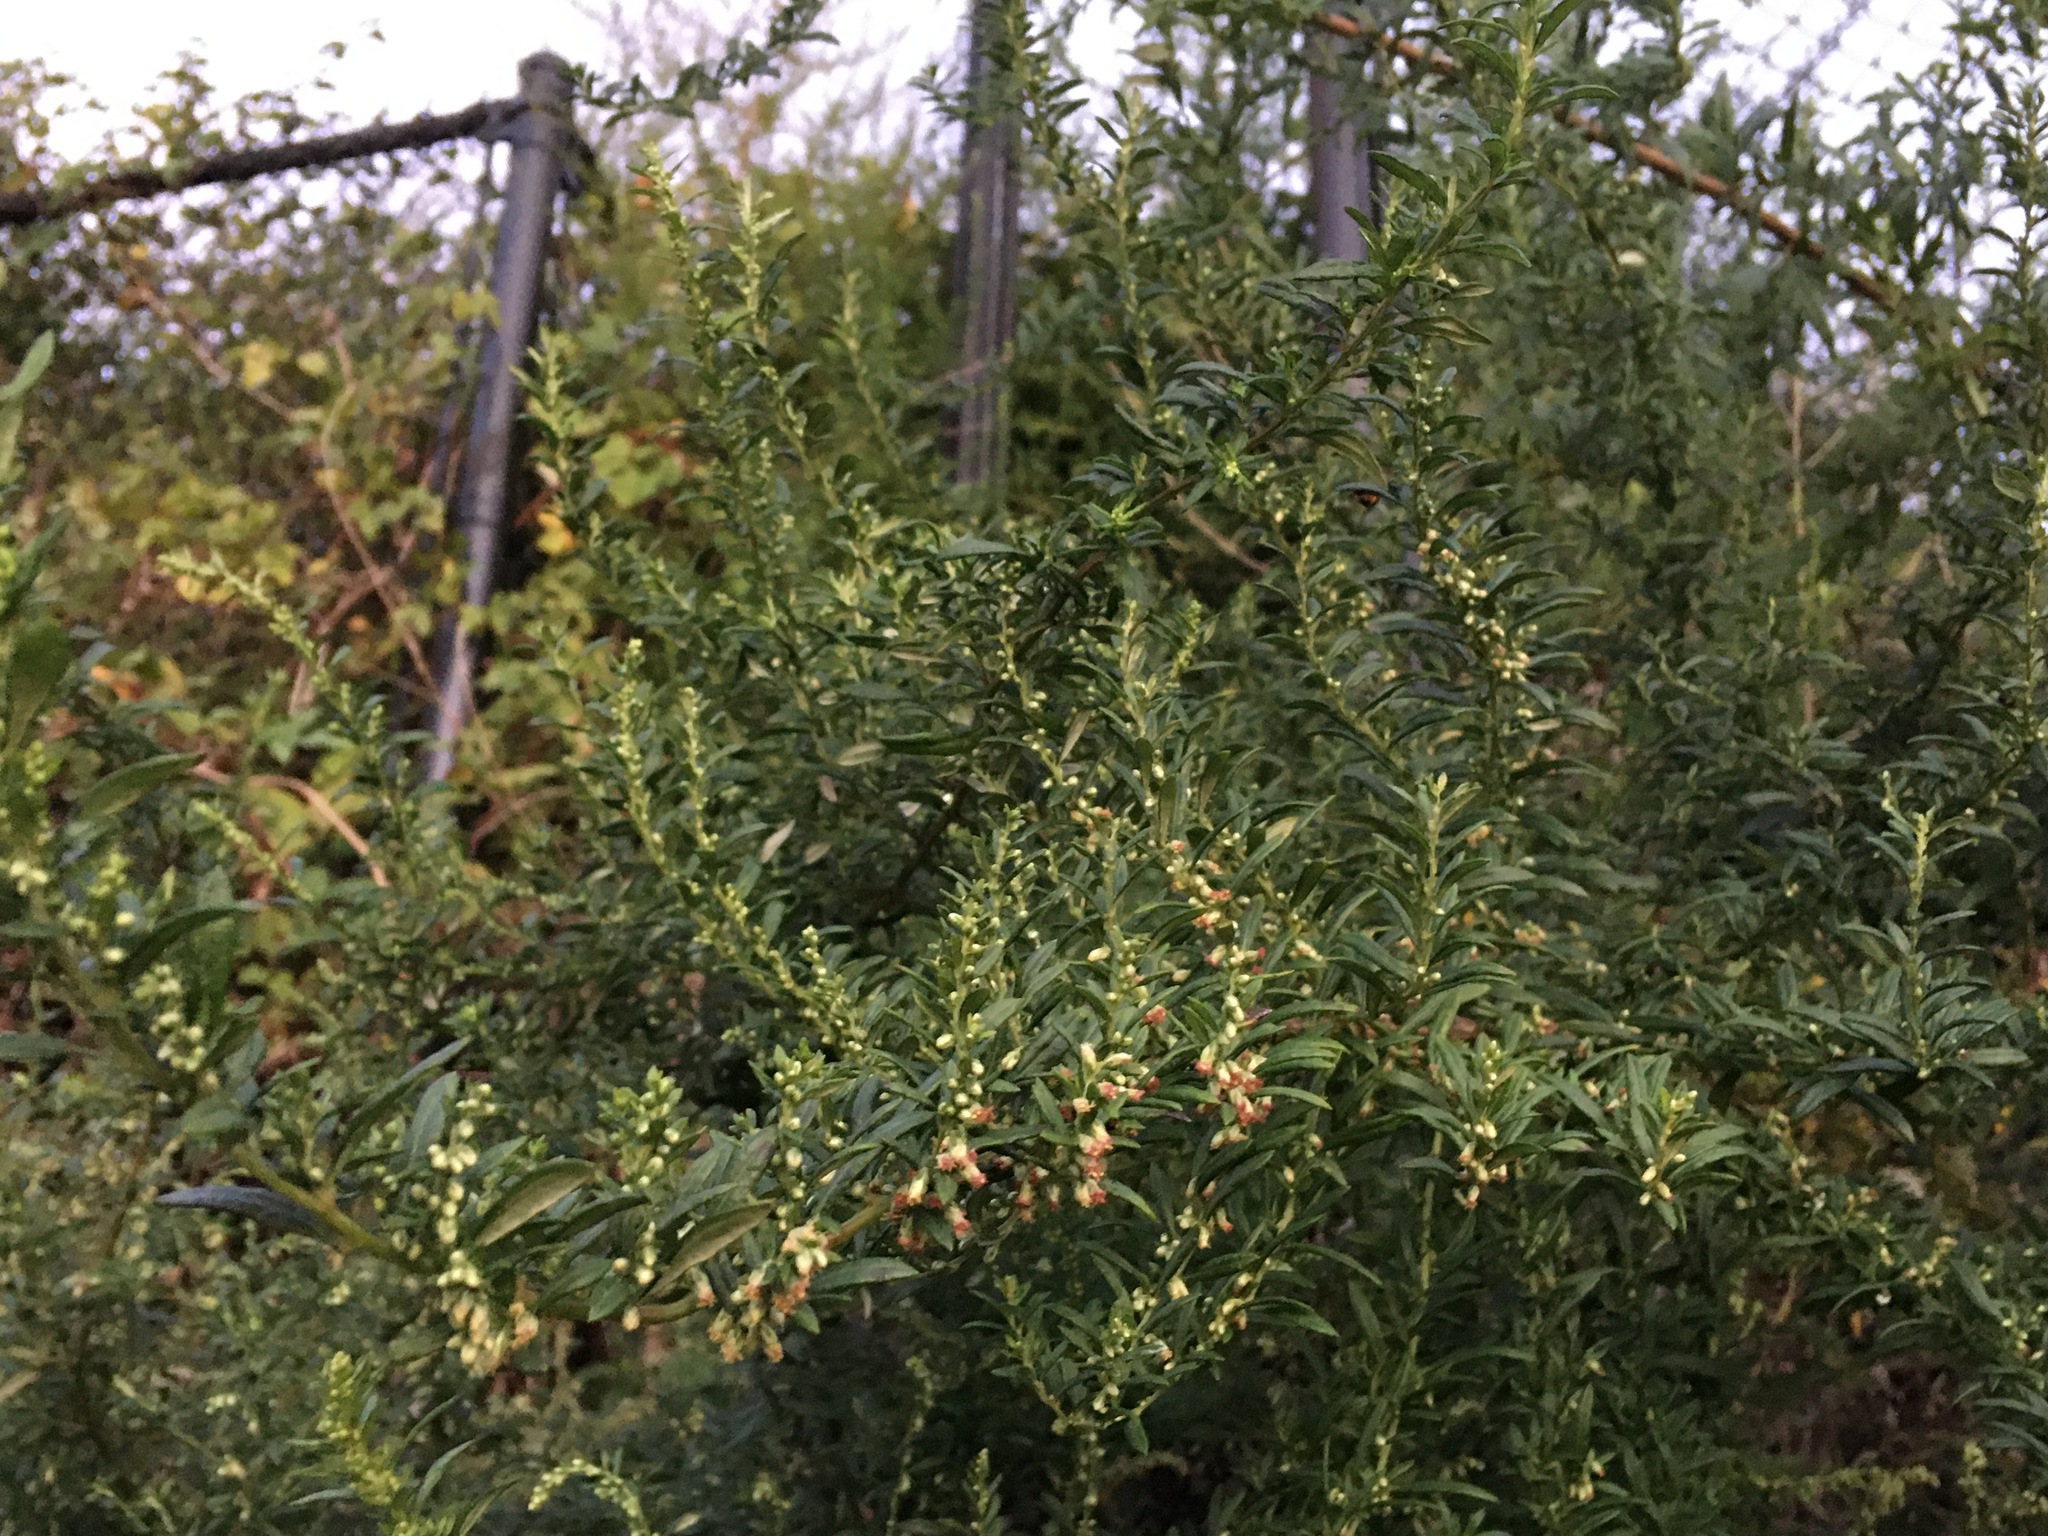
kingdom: Plantae
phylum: Tracheophyta
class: Magnoliopsida
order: Asterales
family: Asteraceae
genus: Artemisia
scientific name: Artemisia vulgaris
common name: Mugwort
